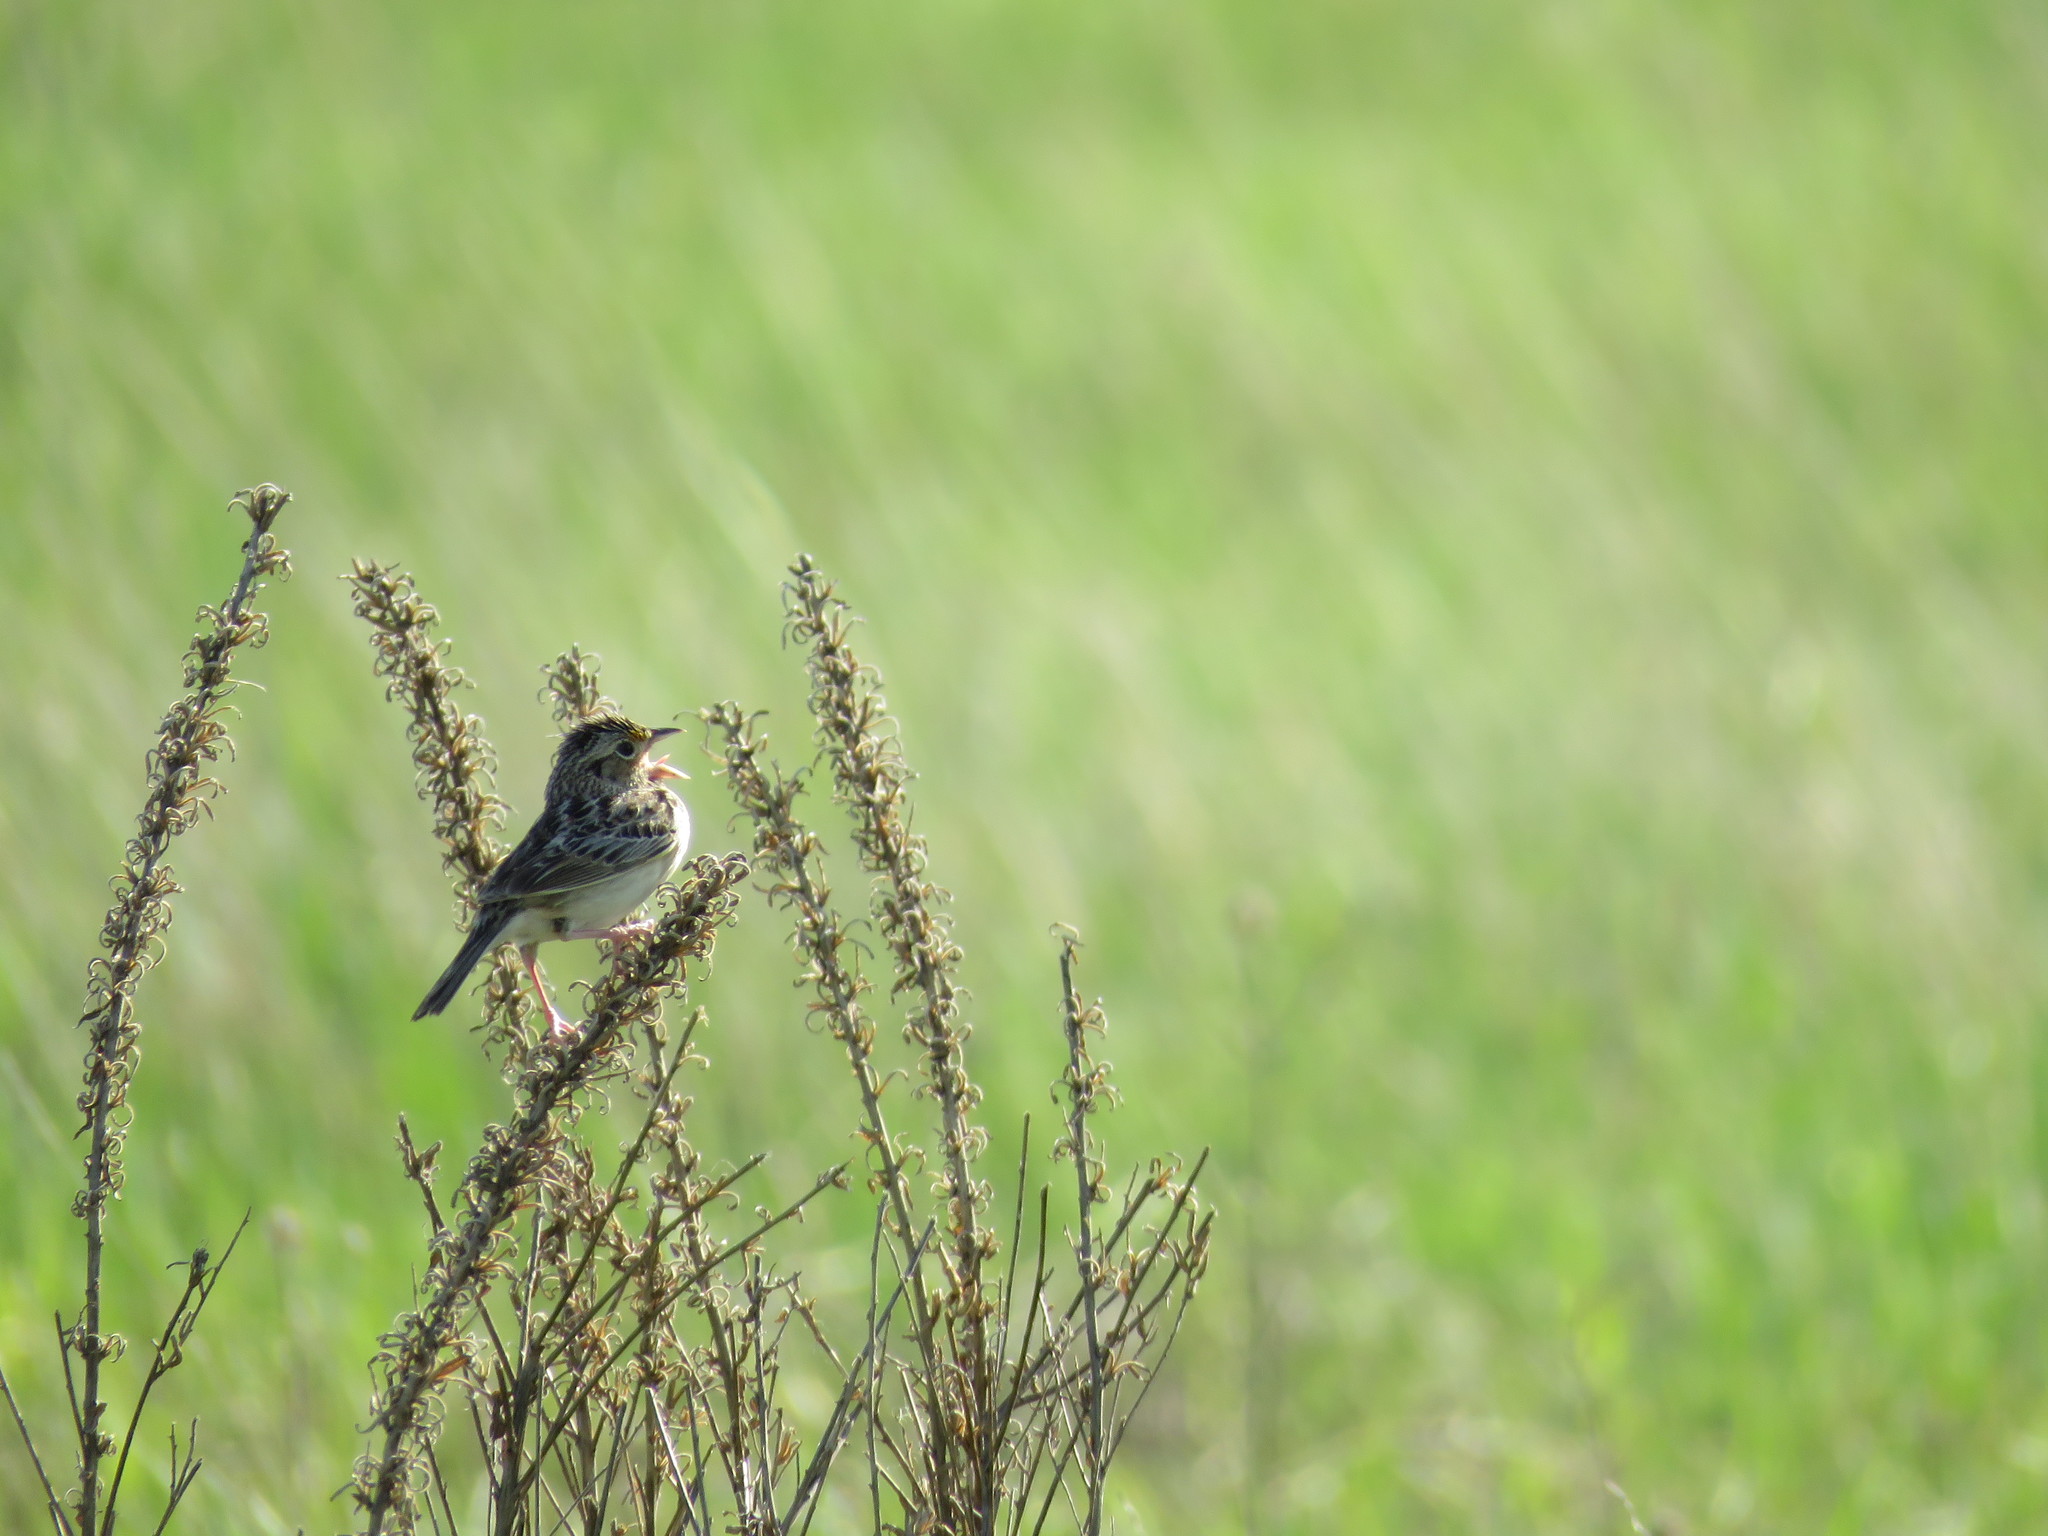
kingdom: Animalia
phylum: Chordata
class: Aves
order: Passeriformes
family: Passerellidae
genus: Ammodramus
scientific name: Ammodramus savannarum
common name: Grasshopper sparrow
